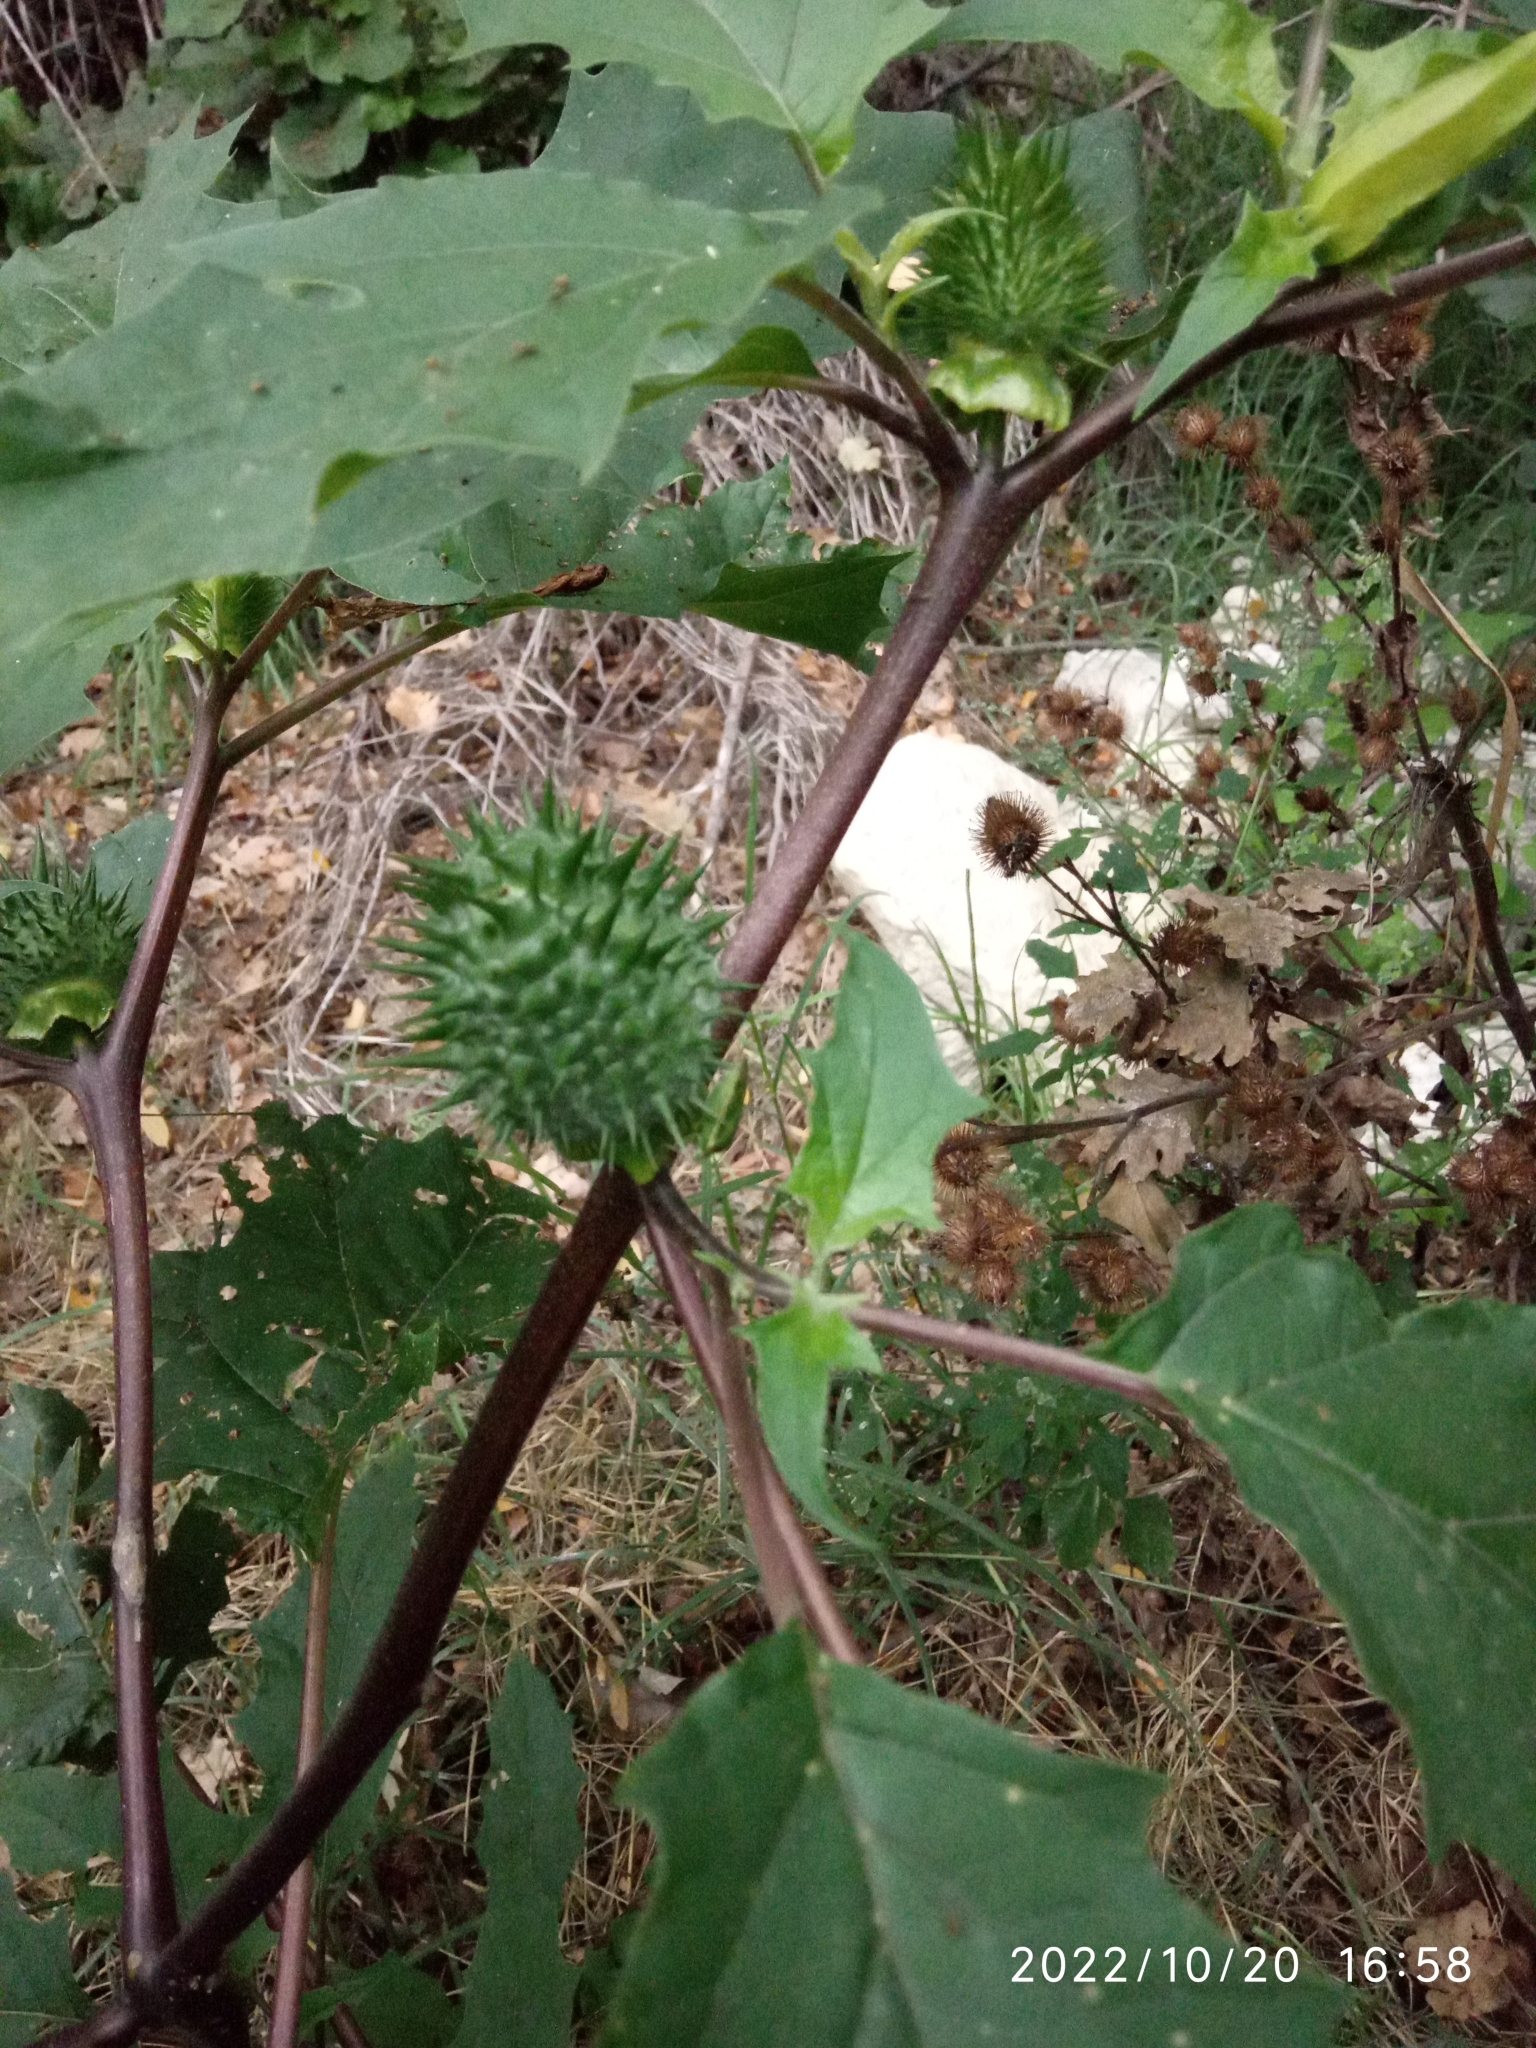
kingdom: Plantae
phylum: Tracheophyta
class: Magnoliopsida
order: Solanales
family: Solanaceae
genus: Datura
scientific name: Datura stramonium
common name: Thorn-apple
